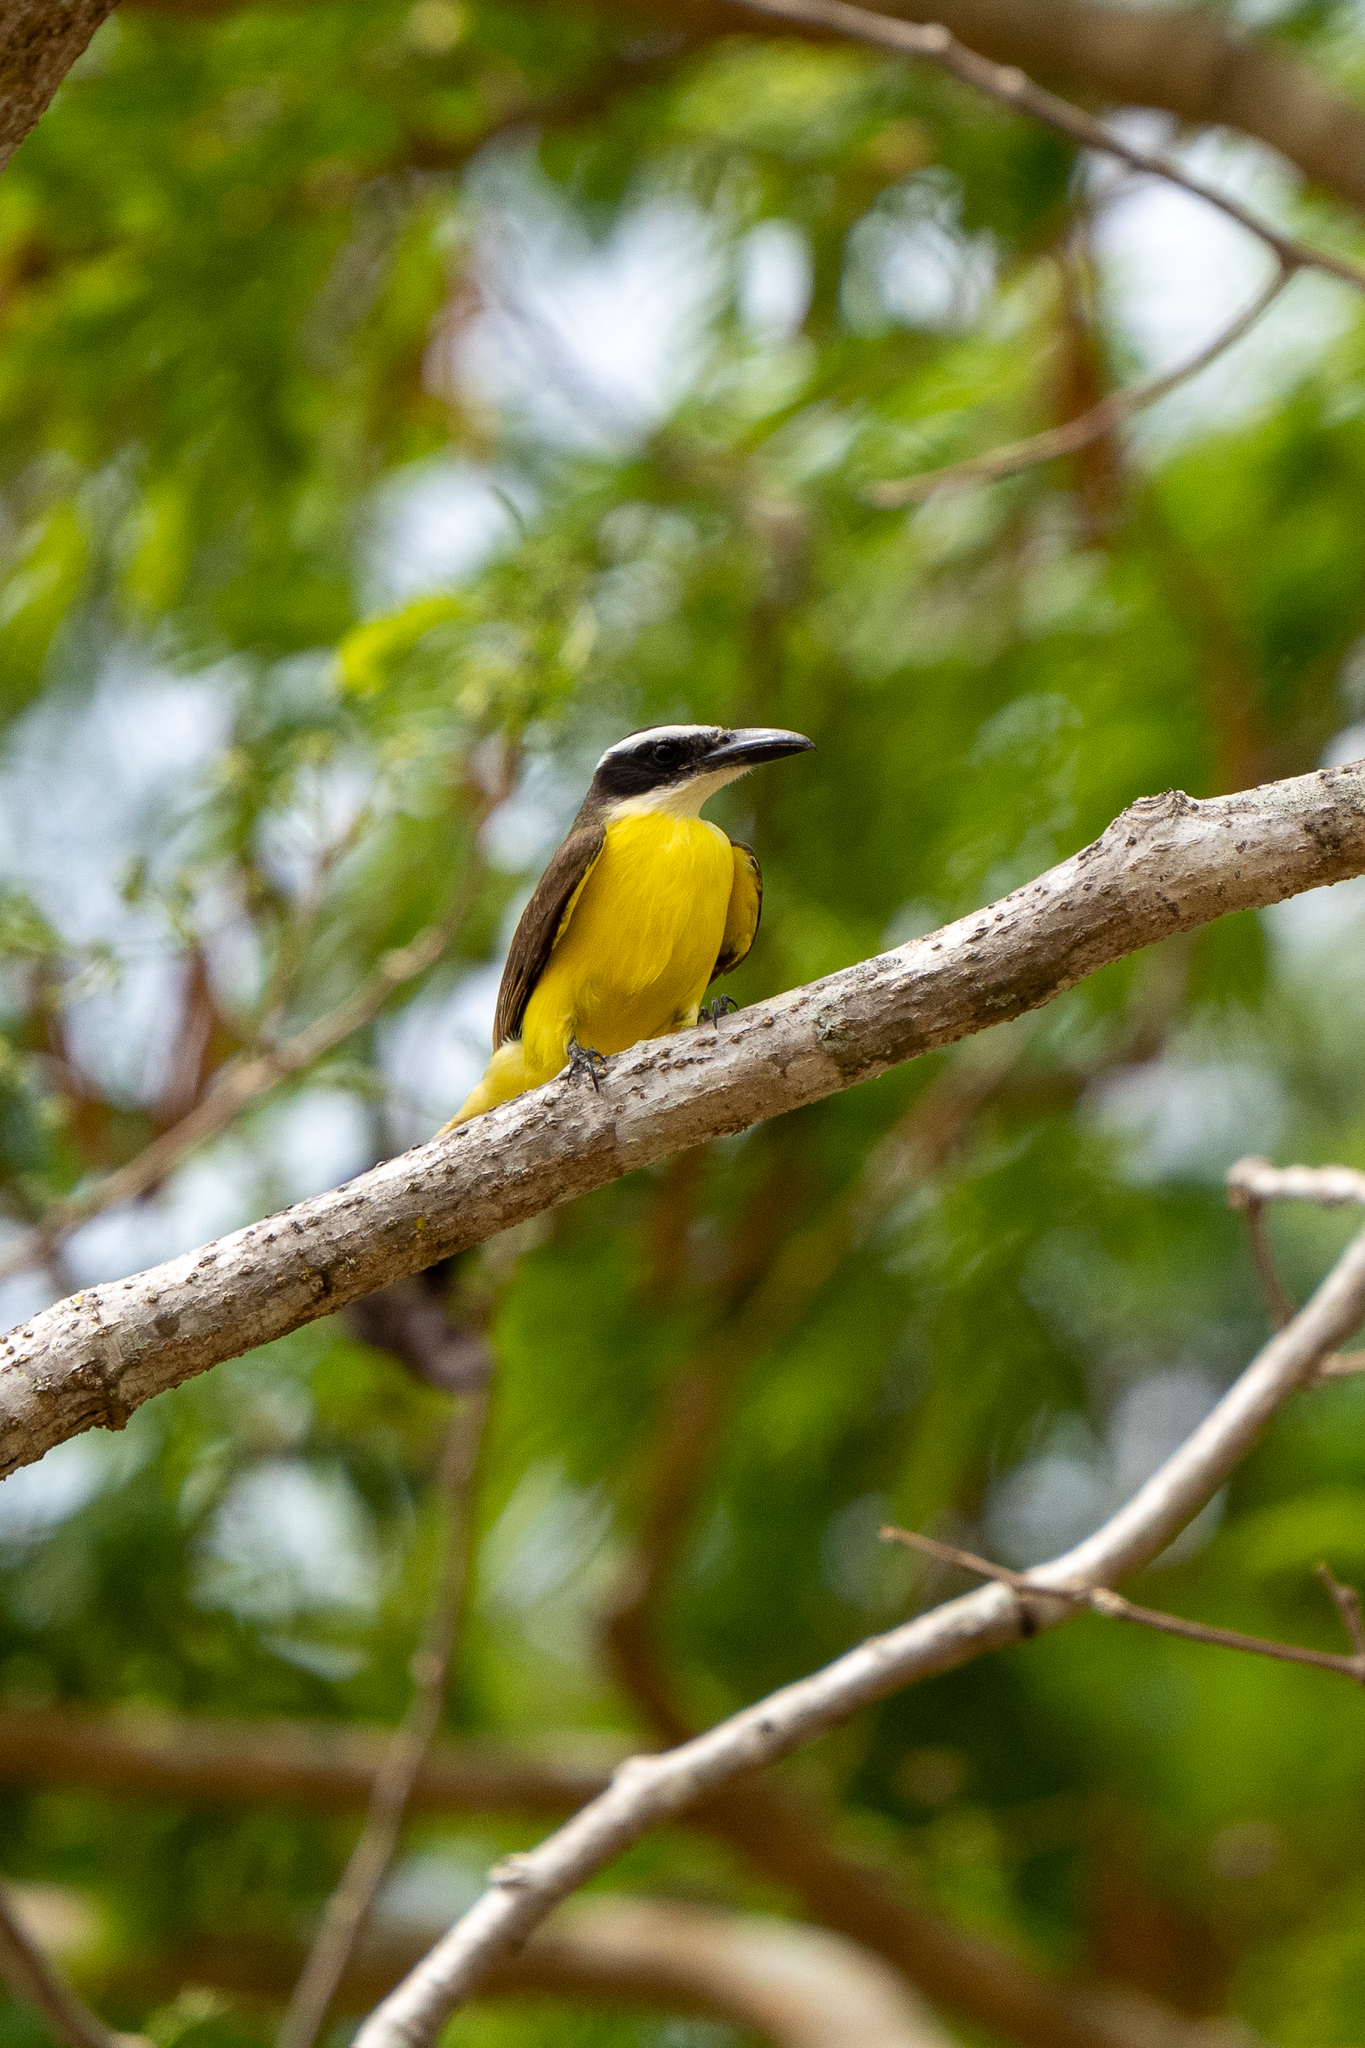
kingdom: Animalia
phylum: Chordata
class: Aves
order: Passeriformes
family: Tyrannidae
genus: Megarynchus
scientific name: Megarynchus pitangua
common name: Boat-billed flycatcher
